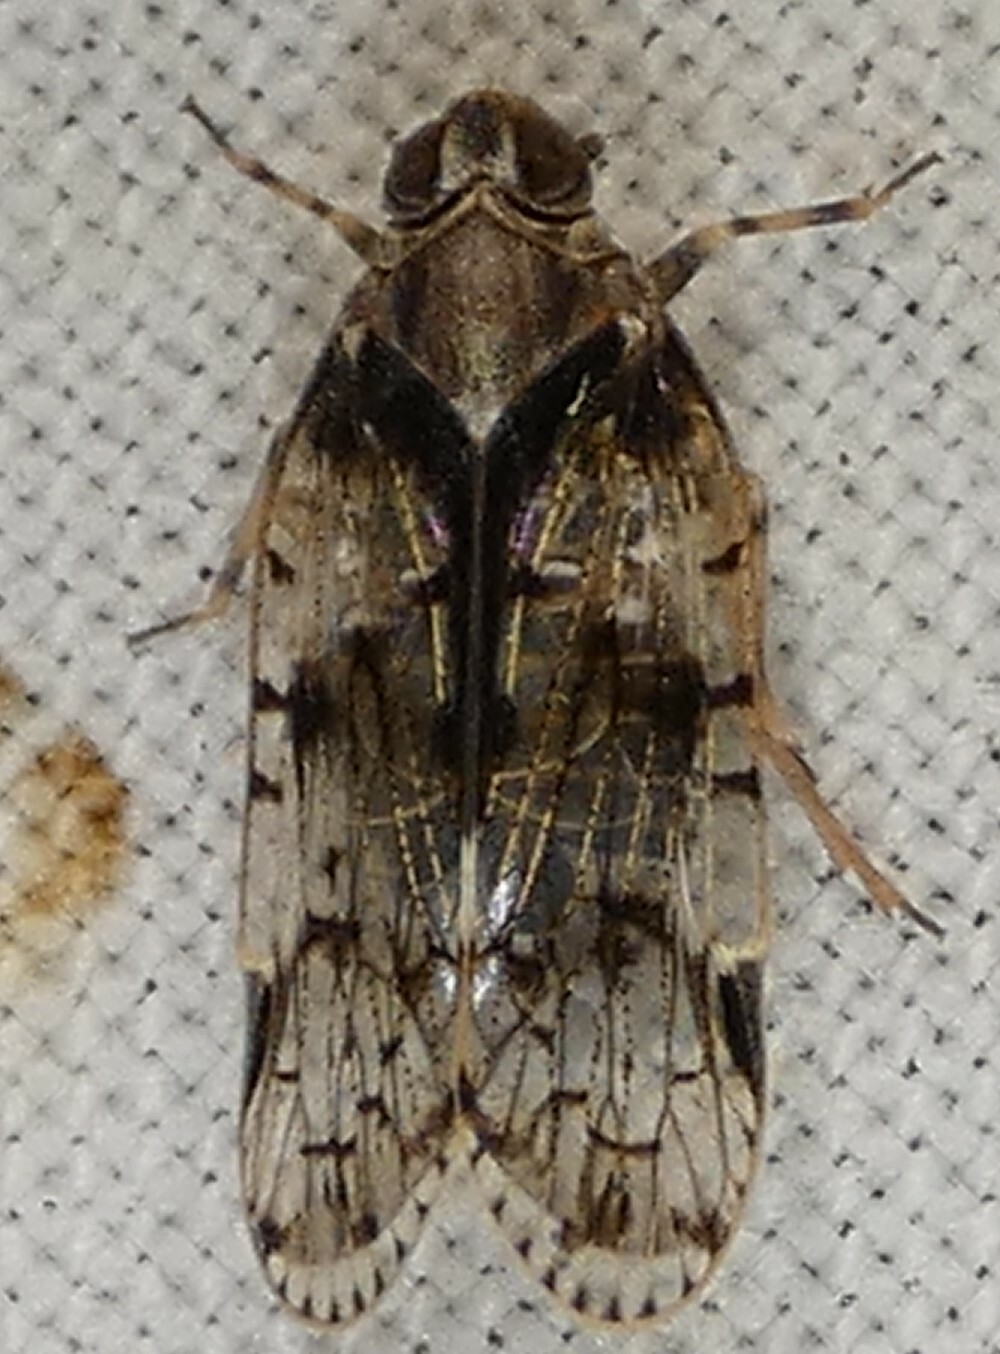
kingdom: Animalia
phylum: Arthropoda
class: Insecta
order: Hemiptera
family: Cixiidae
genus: Melanoliarus
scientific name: Melanoliarus placitus
